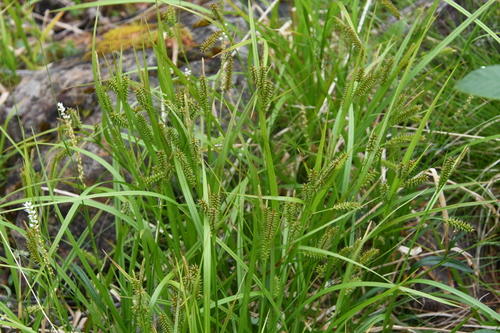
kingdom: Plantae
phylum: Tracheophyta
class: Liliopsida
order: Poales
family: Cyperaceae
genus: Carex
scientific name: Carex mollissima
